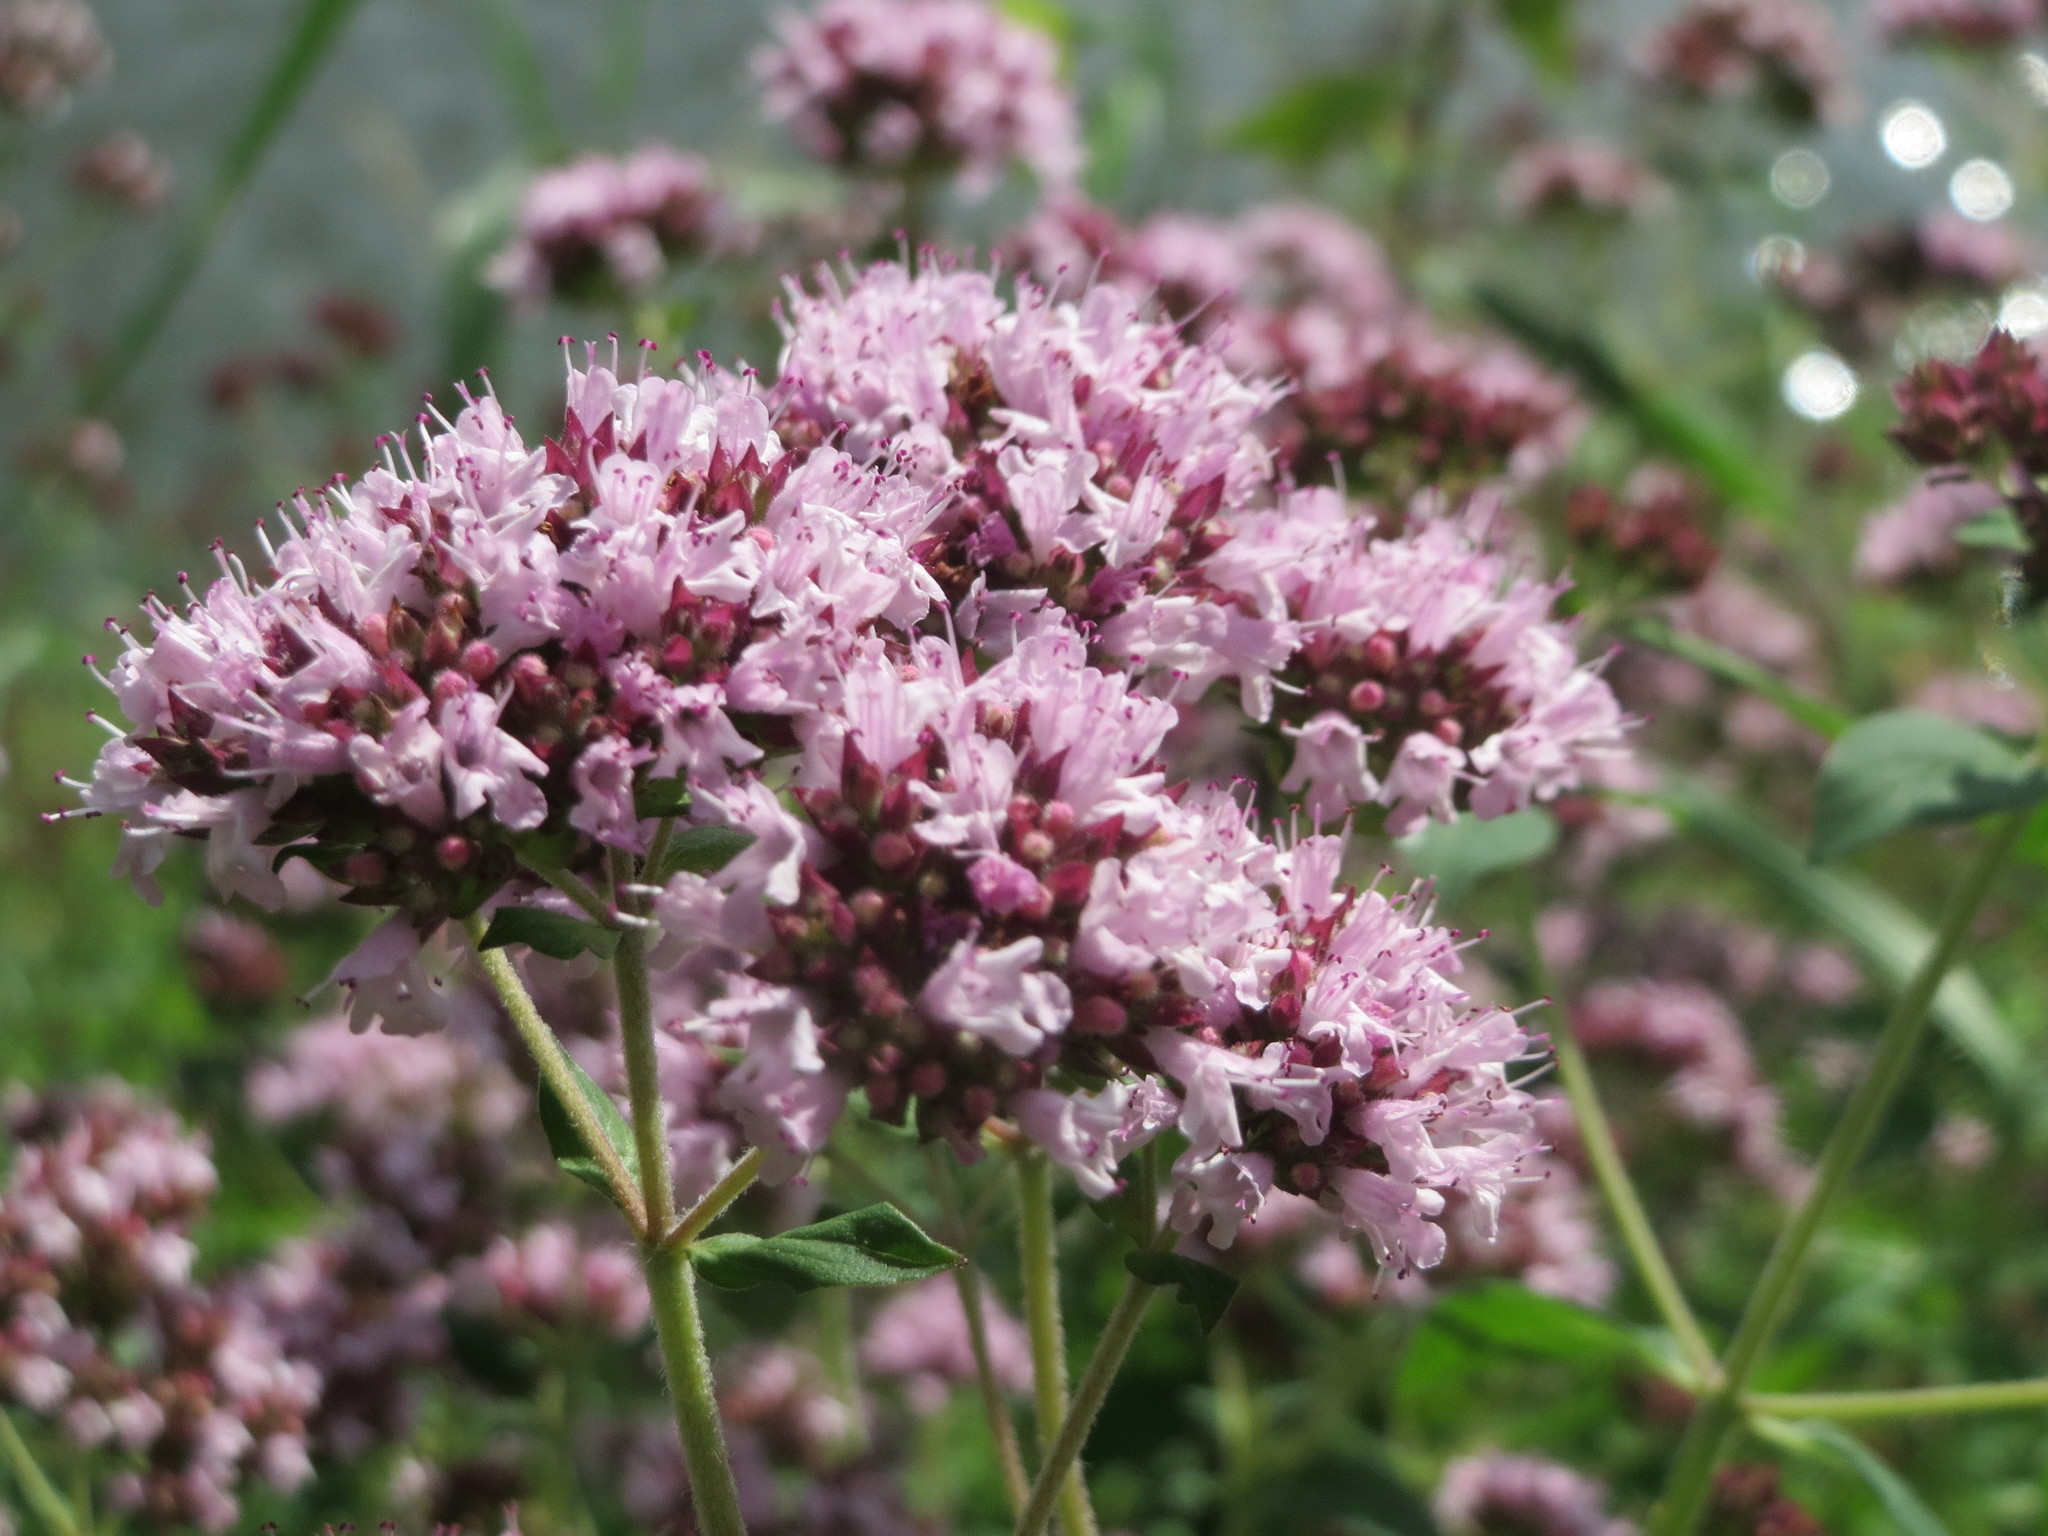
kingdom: Plantae
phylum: Tracheophyta
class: Magnoliopsida
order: Lamiales
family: Lamiaceae
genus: Origanum
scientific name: Origanum vulgare
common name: Wild marjoram
